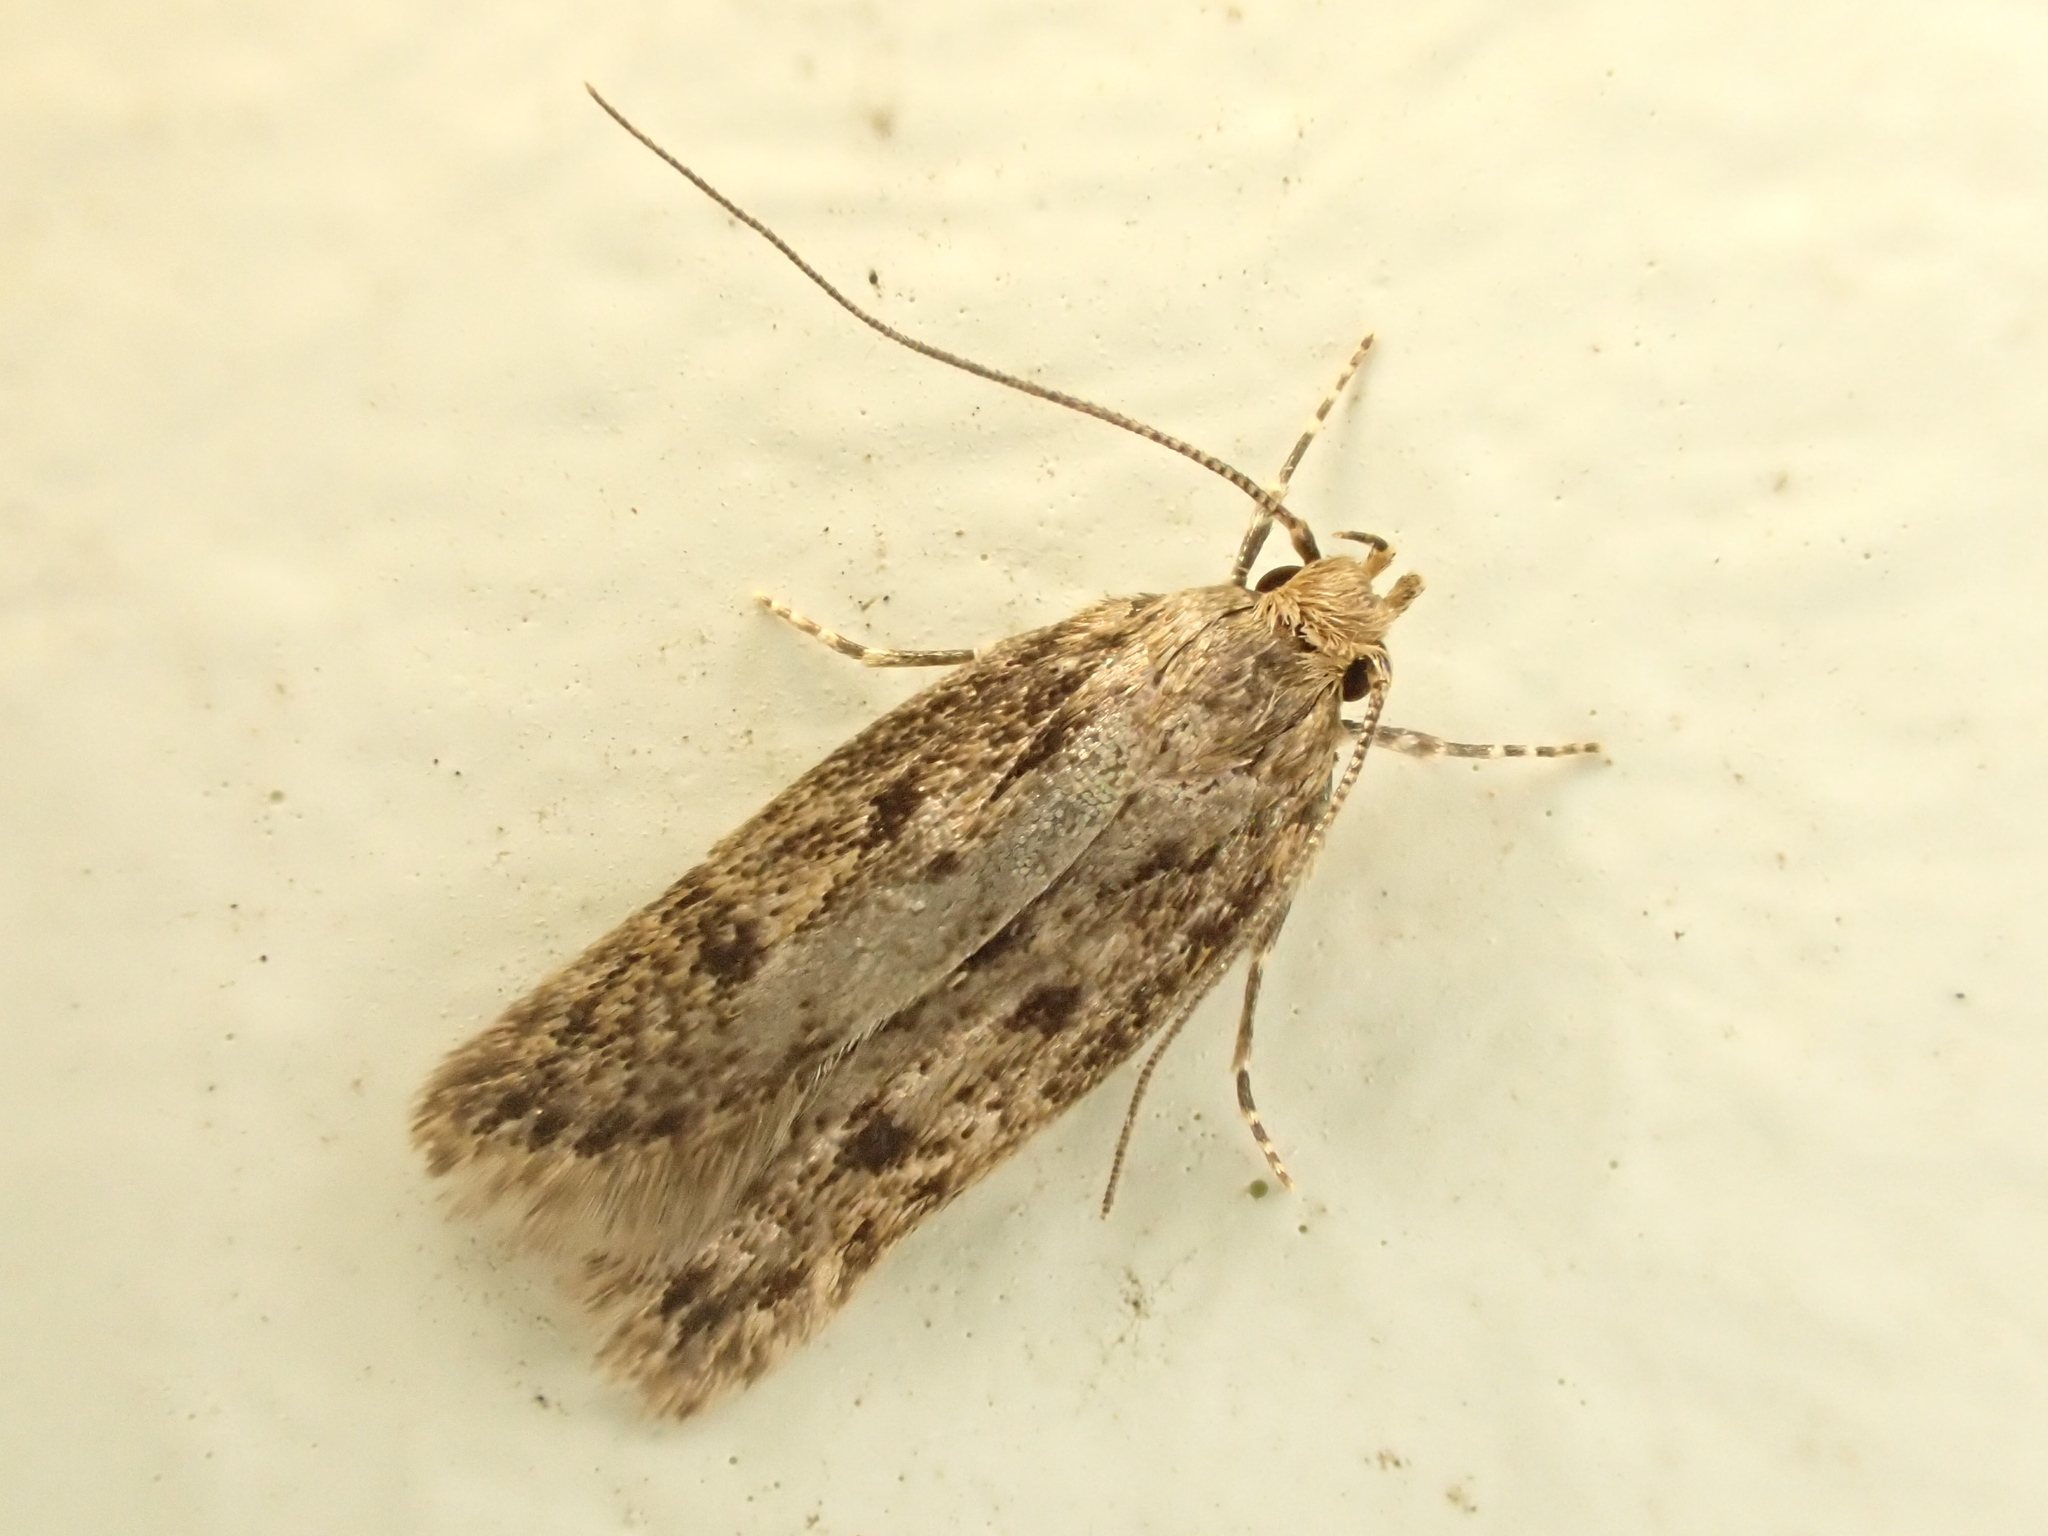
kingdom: Animalia
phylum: Arthropoda
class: Insecta
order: Lepidoptera
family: Oecophoridae
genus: Hofmannophila
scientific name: Hofmannophila pseudospretella
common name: Brown house moth
